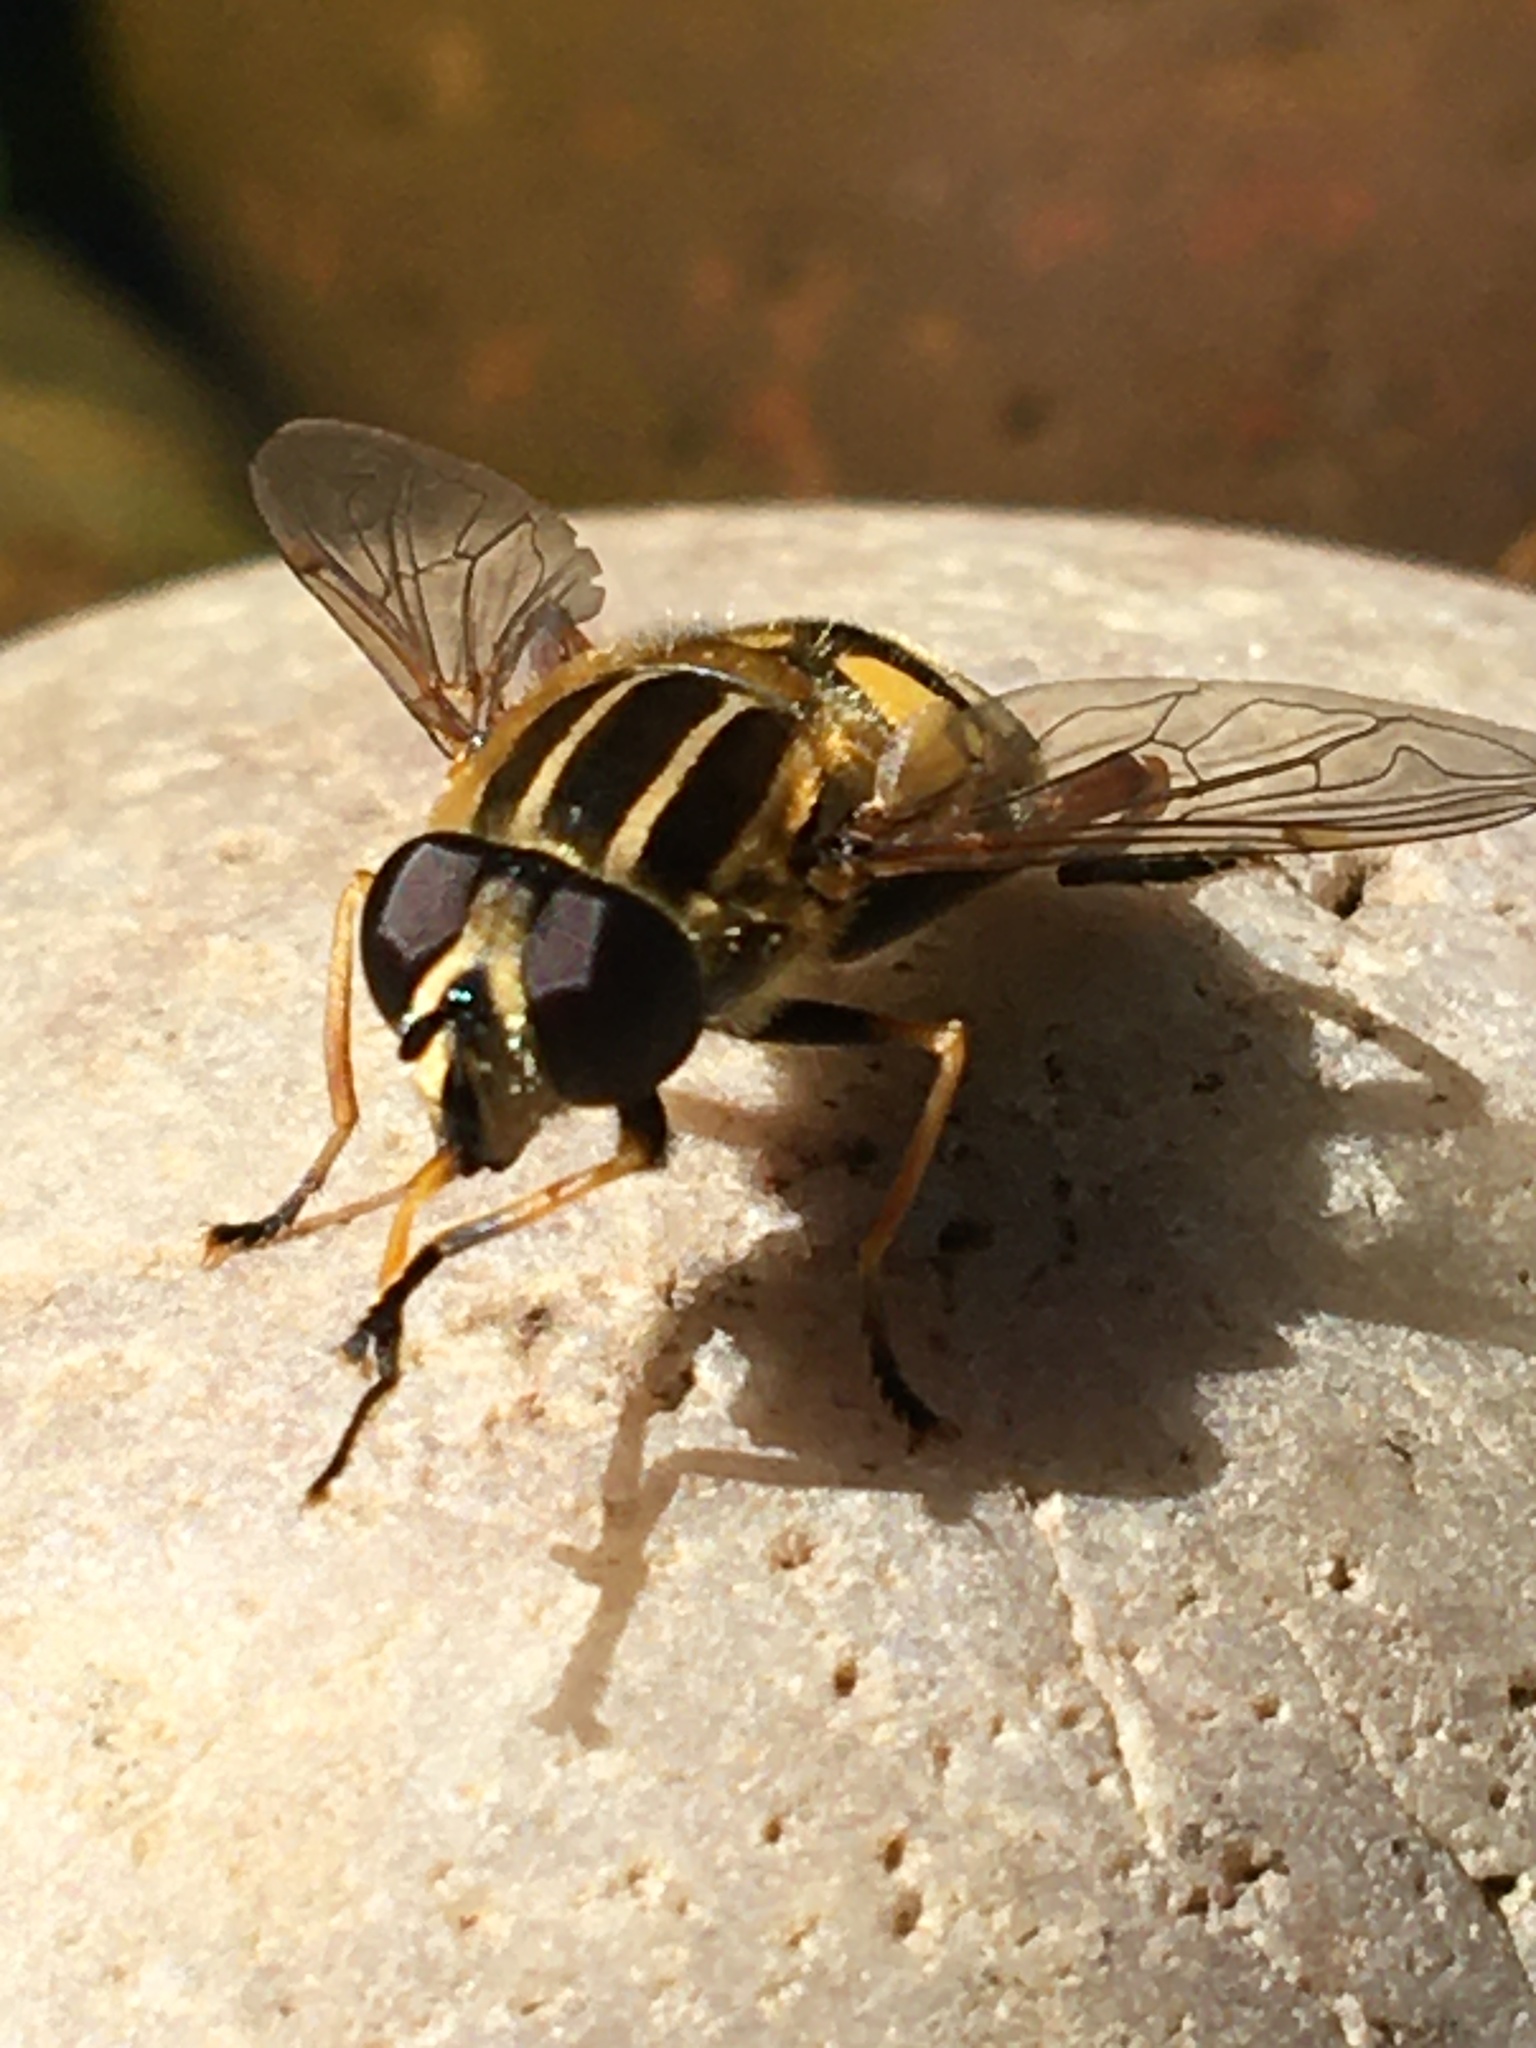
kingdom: Animalia
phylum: Arthropoda
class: Insecta
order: Diptera
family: Syrphidae
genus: Helophilus
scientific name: Helophilus pendulus
